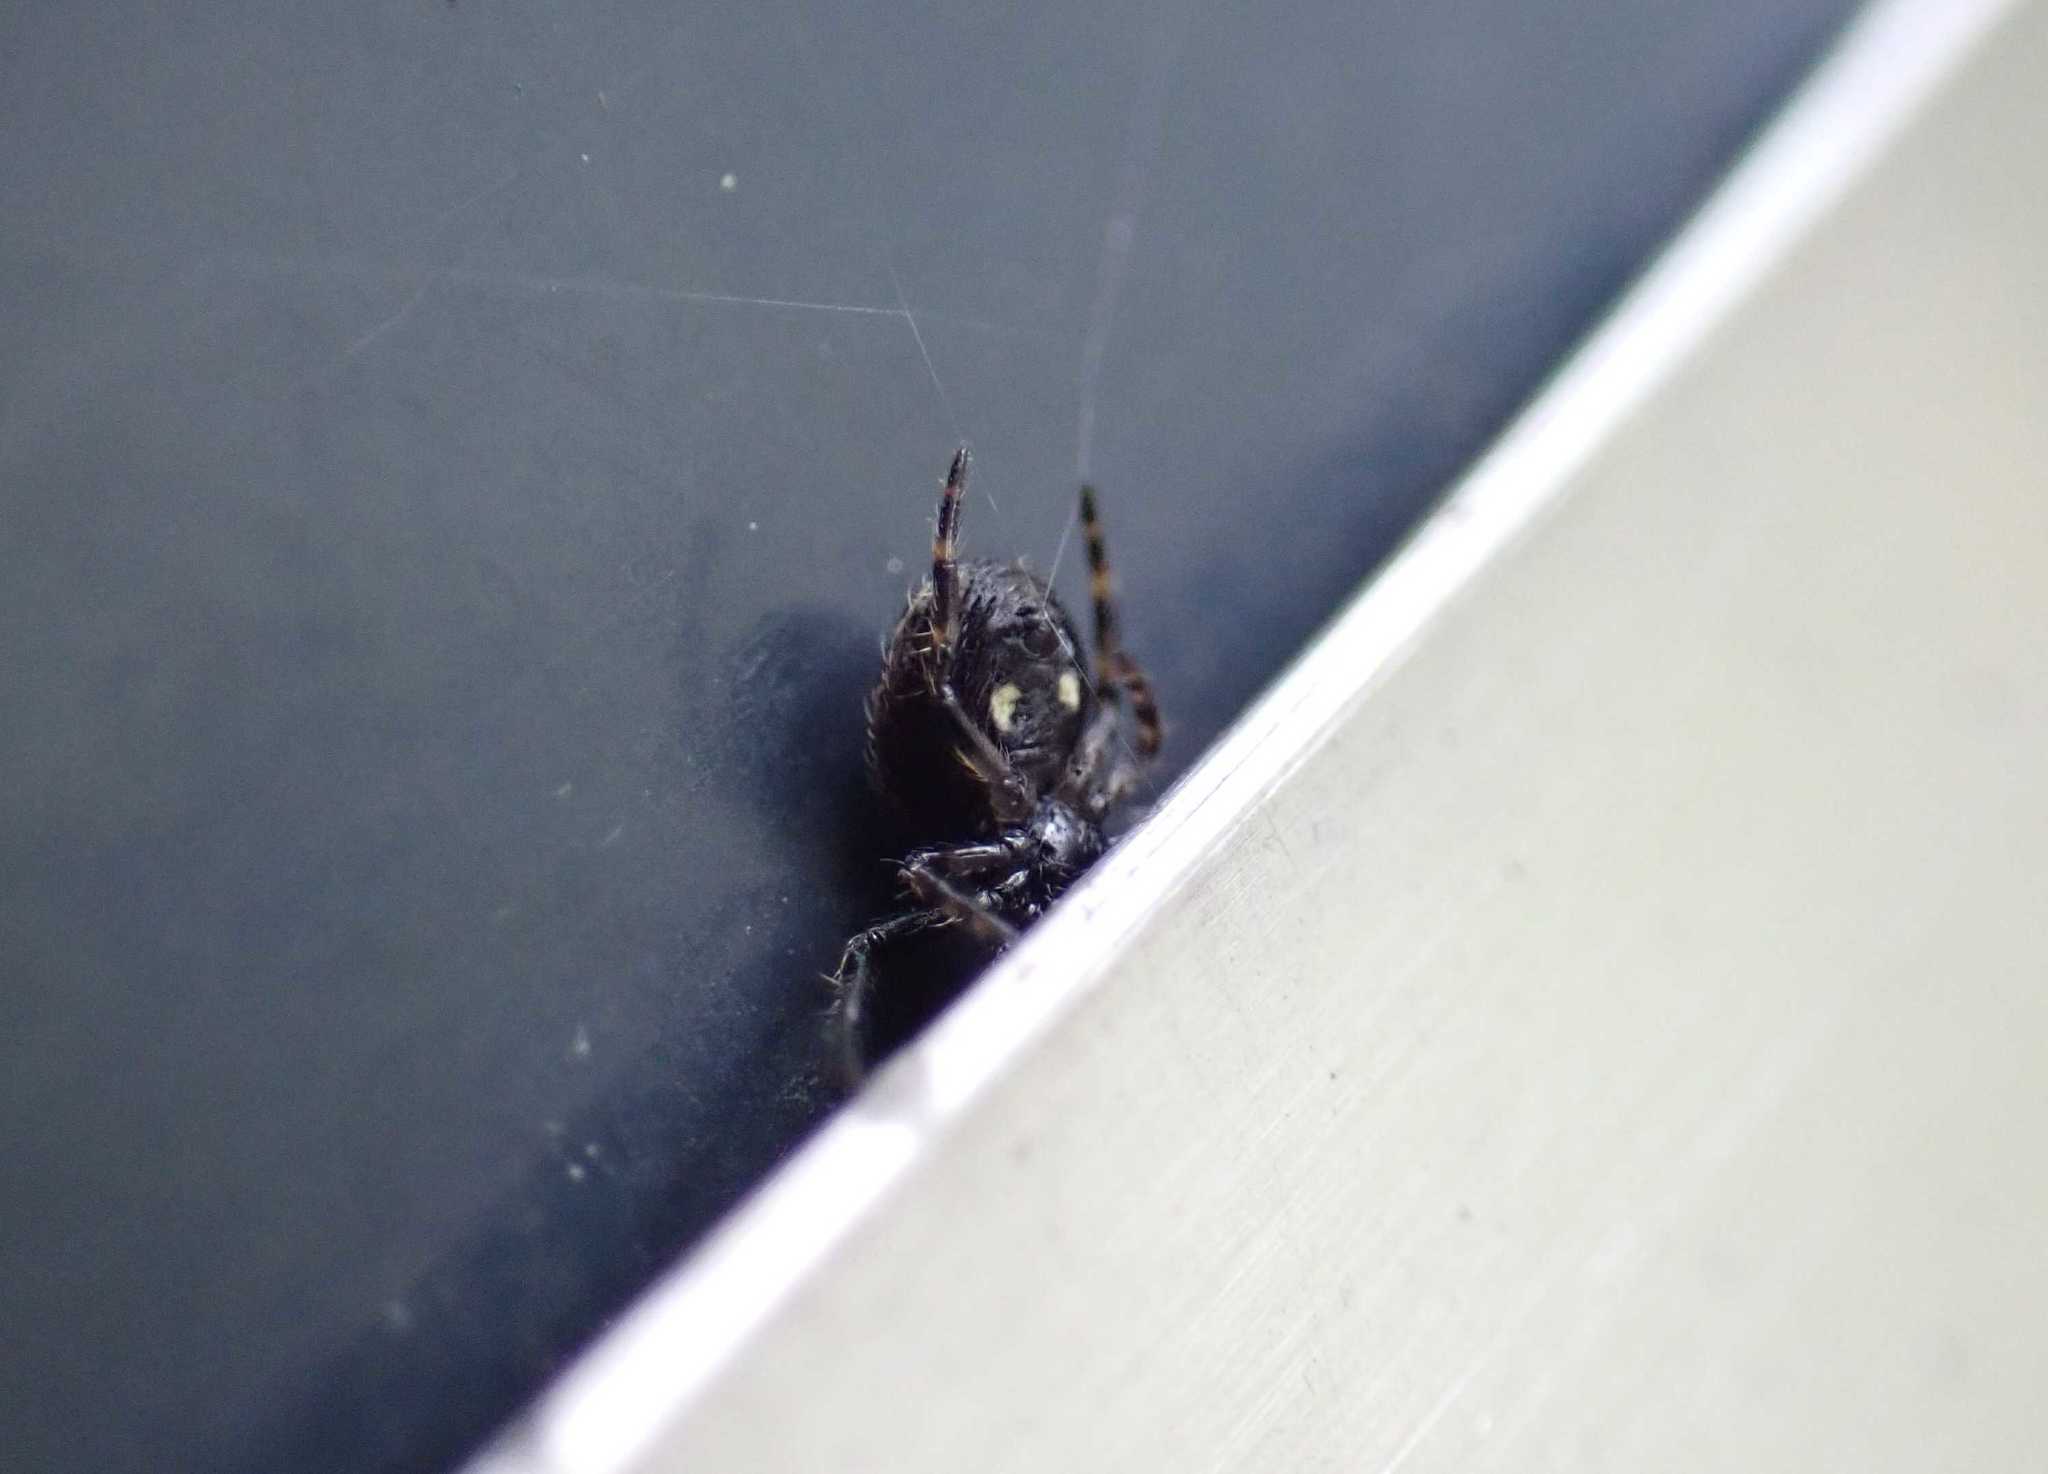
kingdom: Animalia
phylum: Arthropoda
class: Arachnida
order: Araneae
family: Araneidae
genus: Nuctenea
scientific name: Nuctenea umbratica
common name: Toad spider
